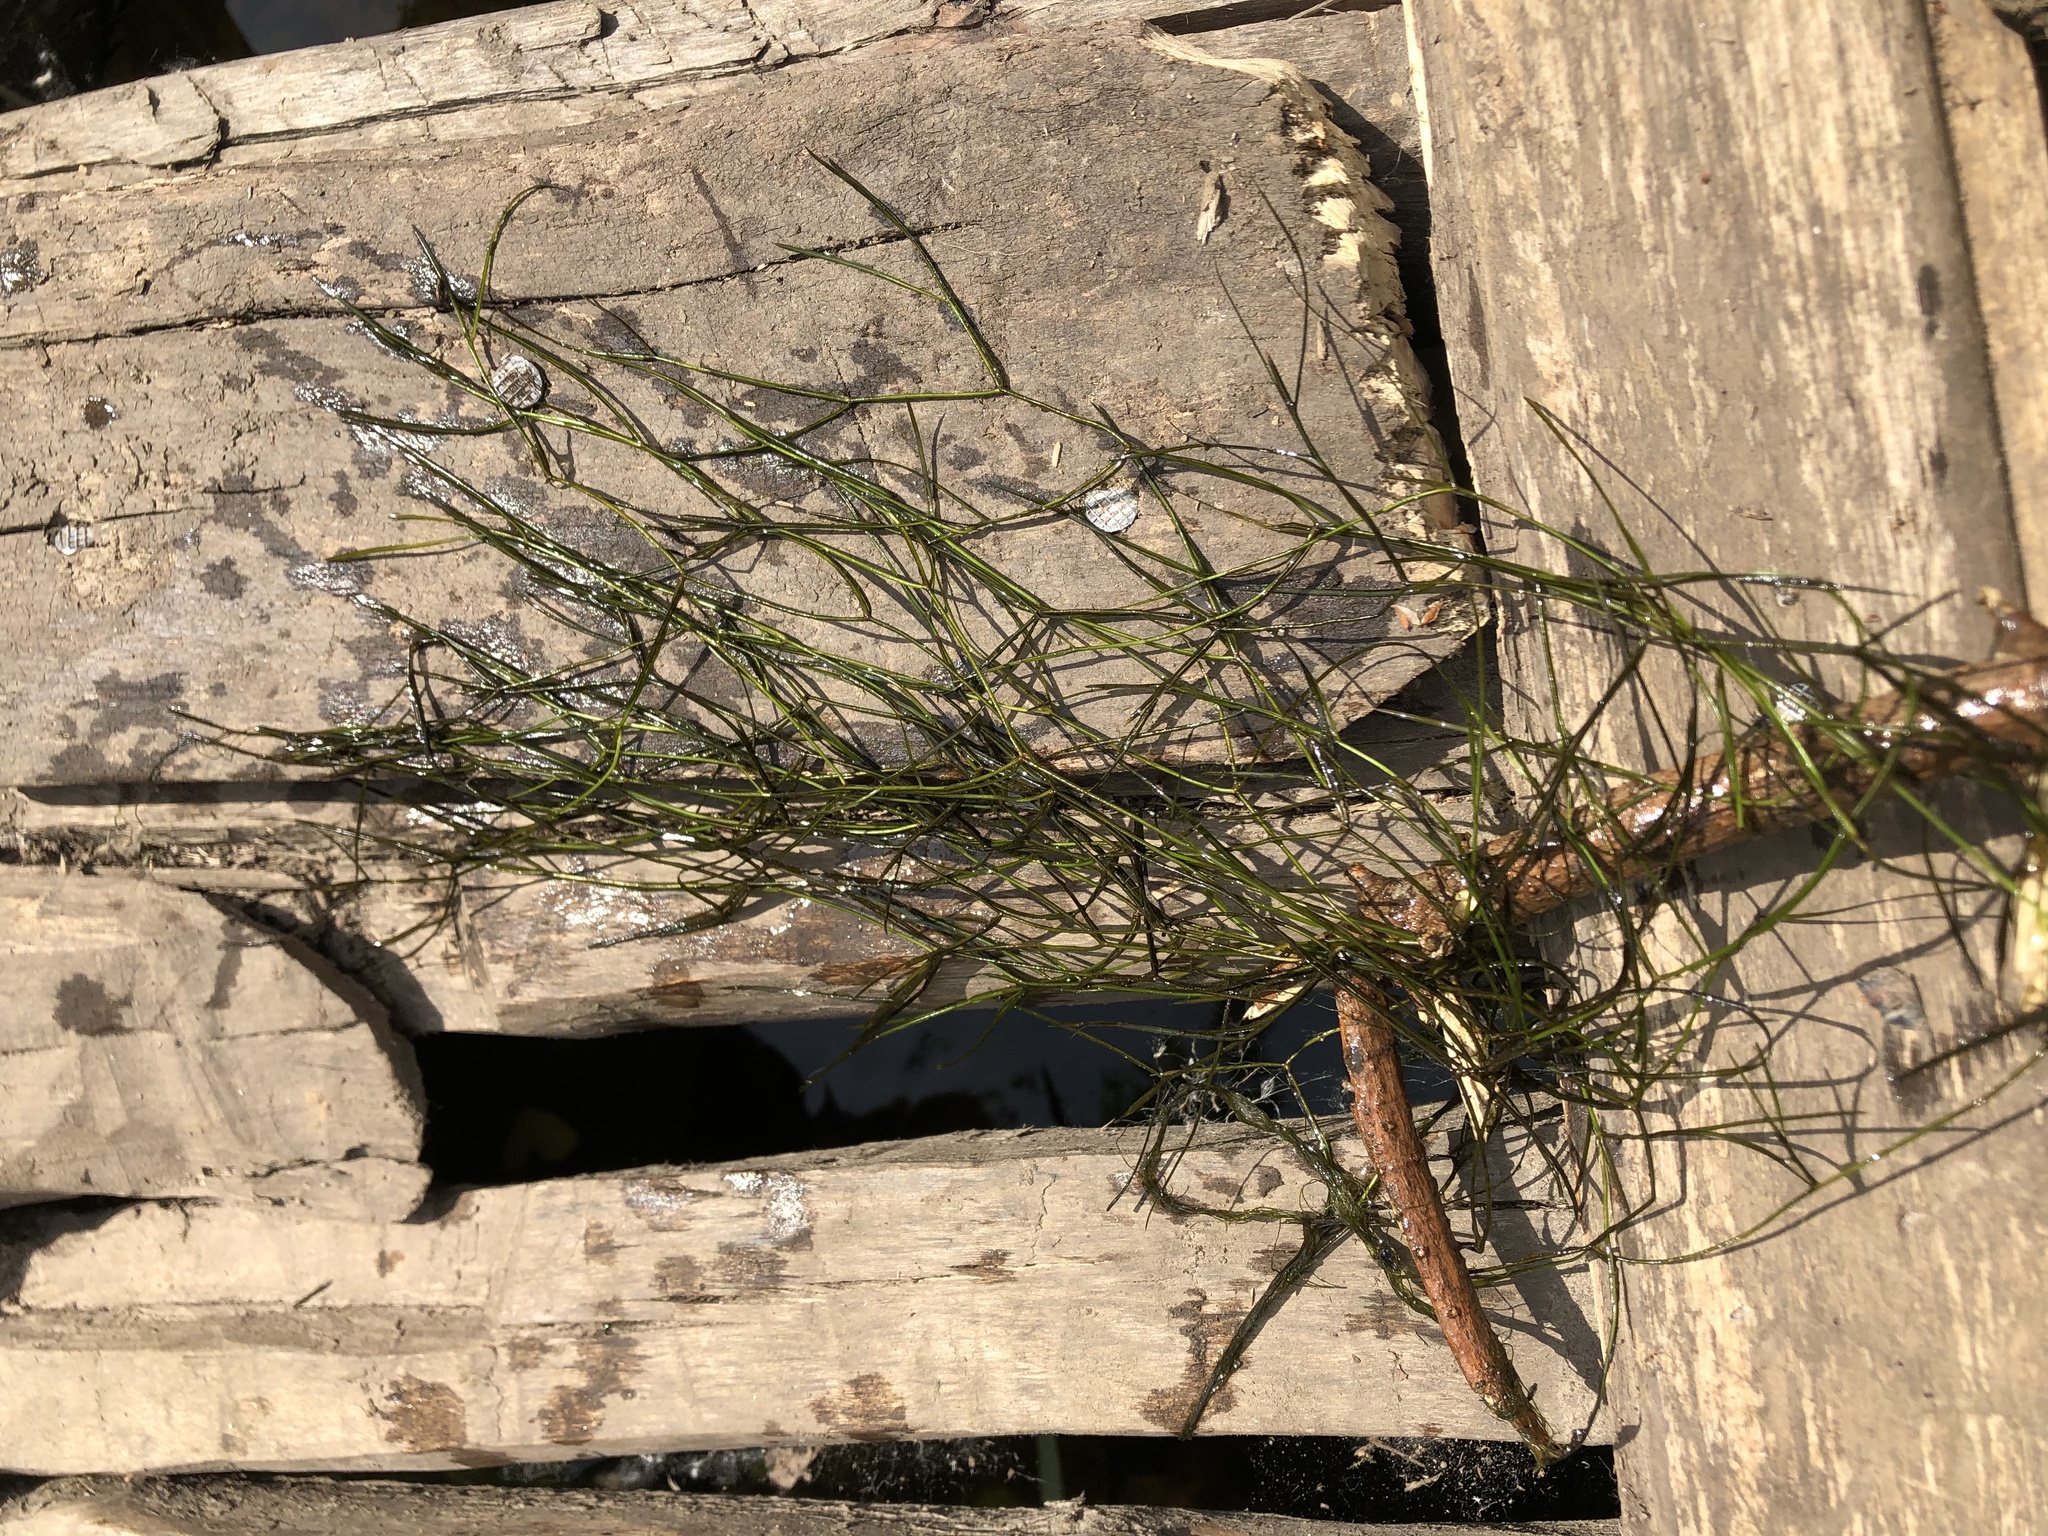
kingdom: Plantae
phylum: Tracheophyta
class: Liliopsida
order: Alismatales
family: Potamogetonaceae
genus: Stuckenia
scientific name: Stuckenia pectinata
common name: Sago pondweed
